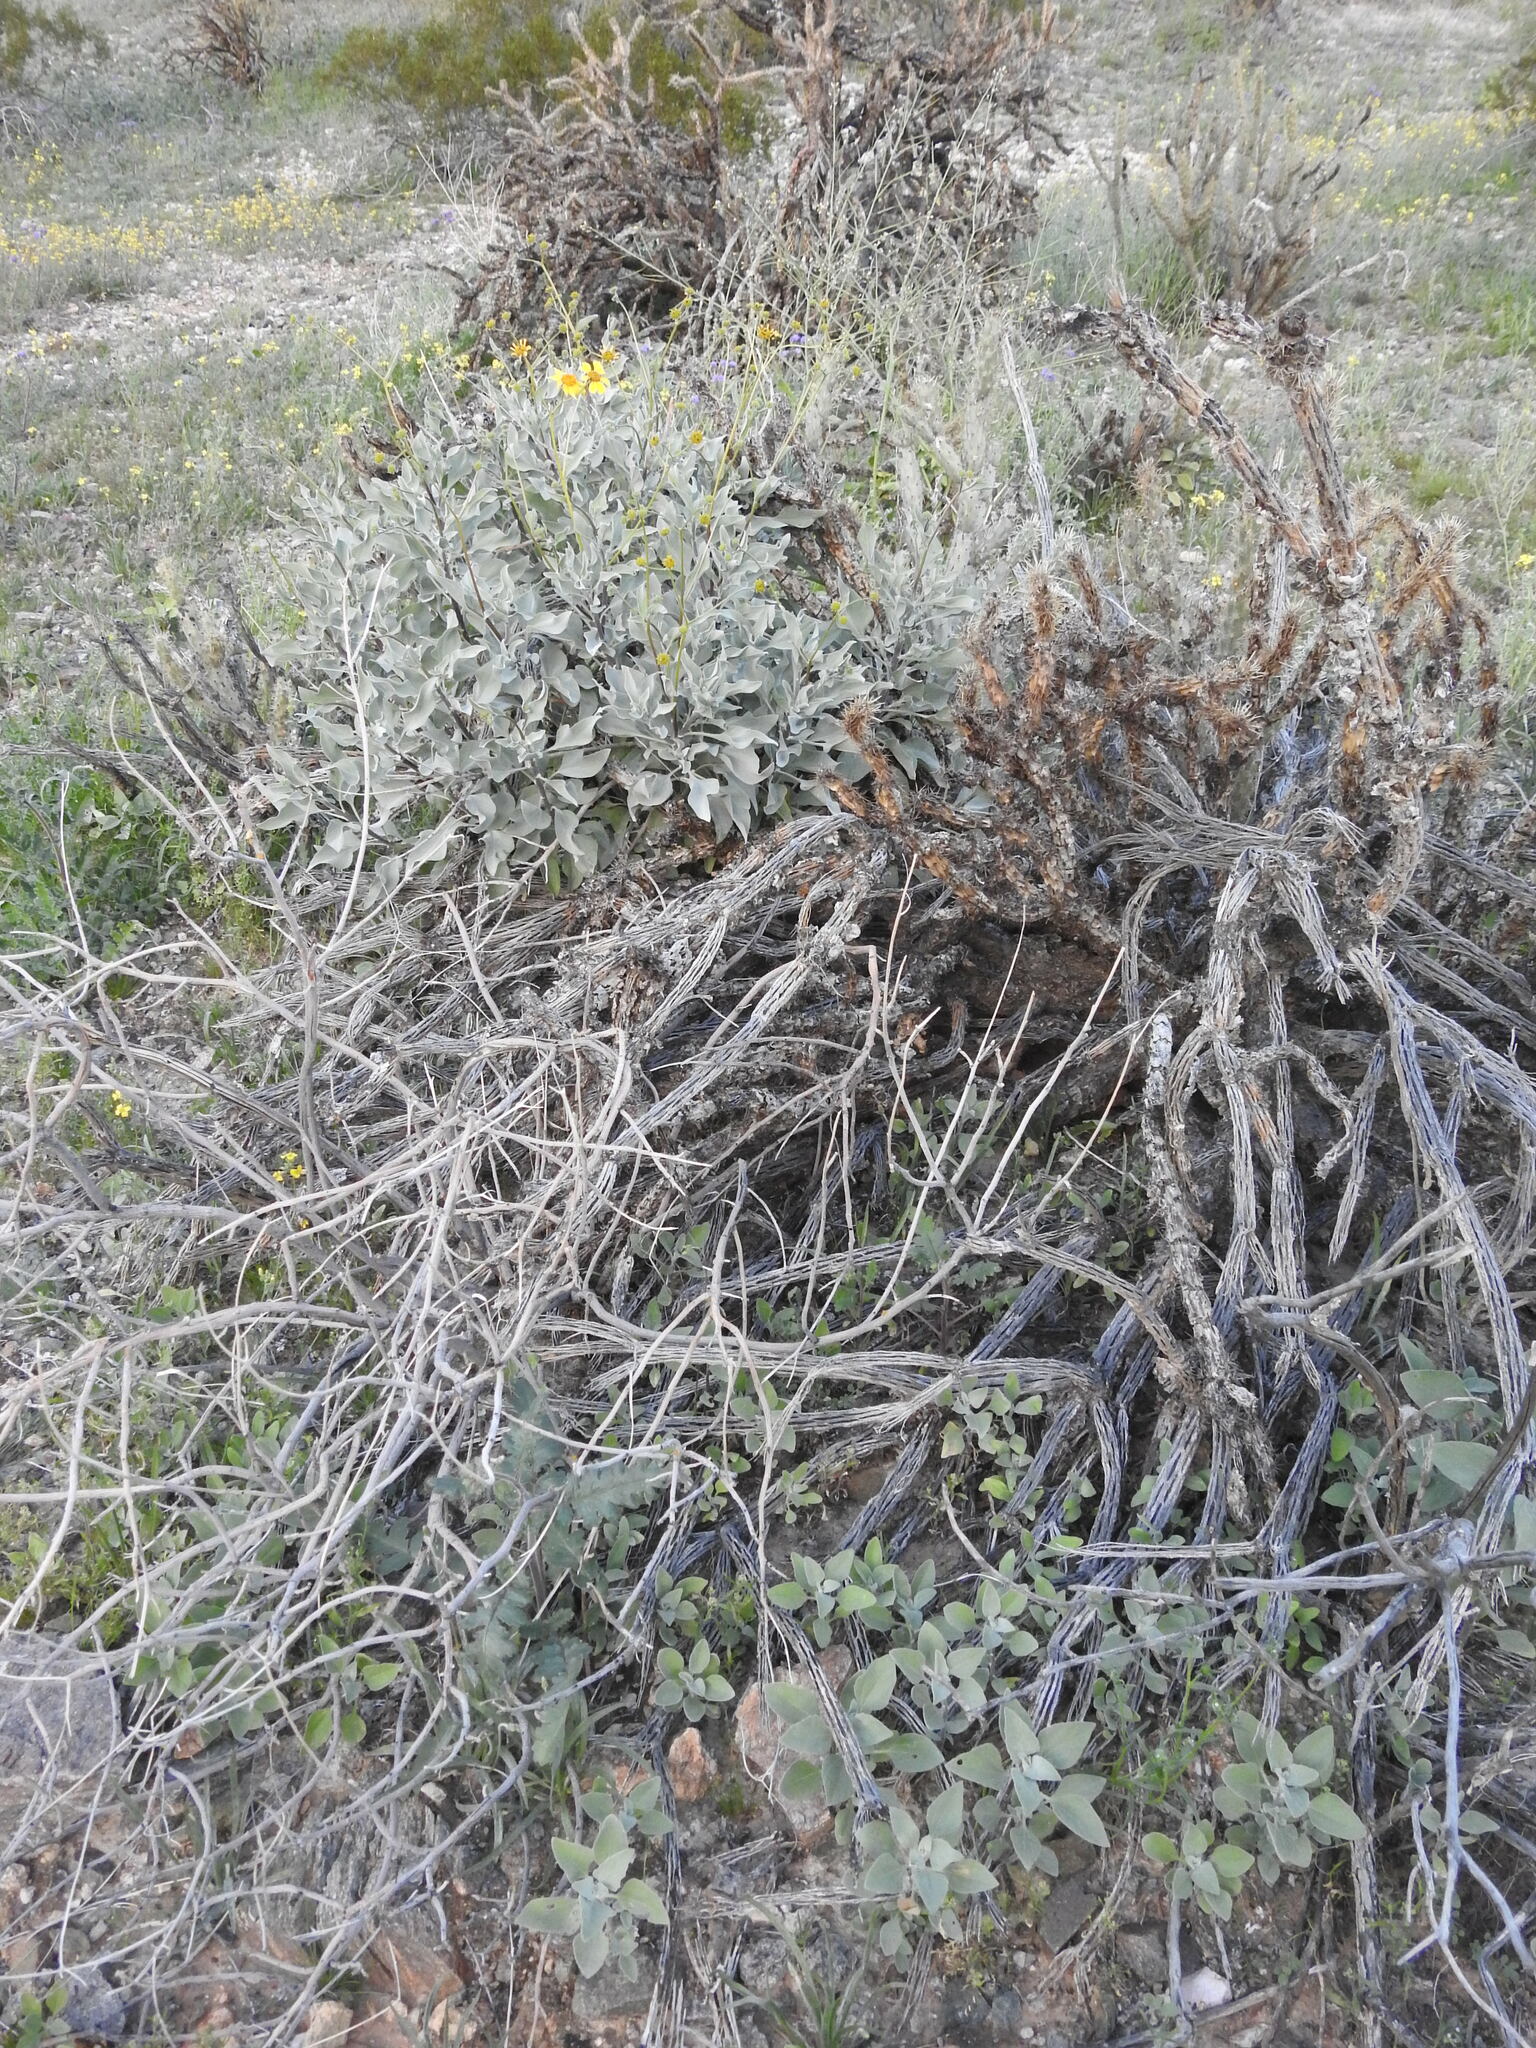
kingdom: Plantae
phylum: Tracheophyta
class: Magnoliopsida
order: Asterales
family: Asteraceae
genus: Encelia
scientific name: Encelia farinosa
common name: Brittlebush
